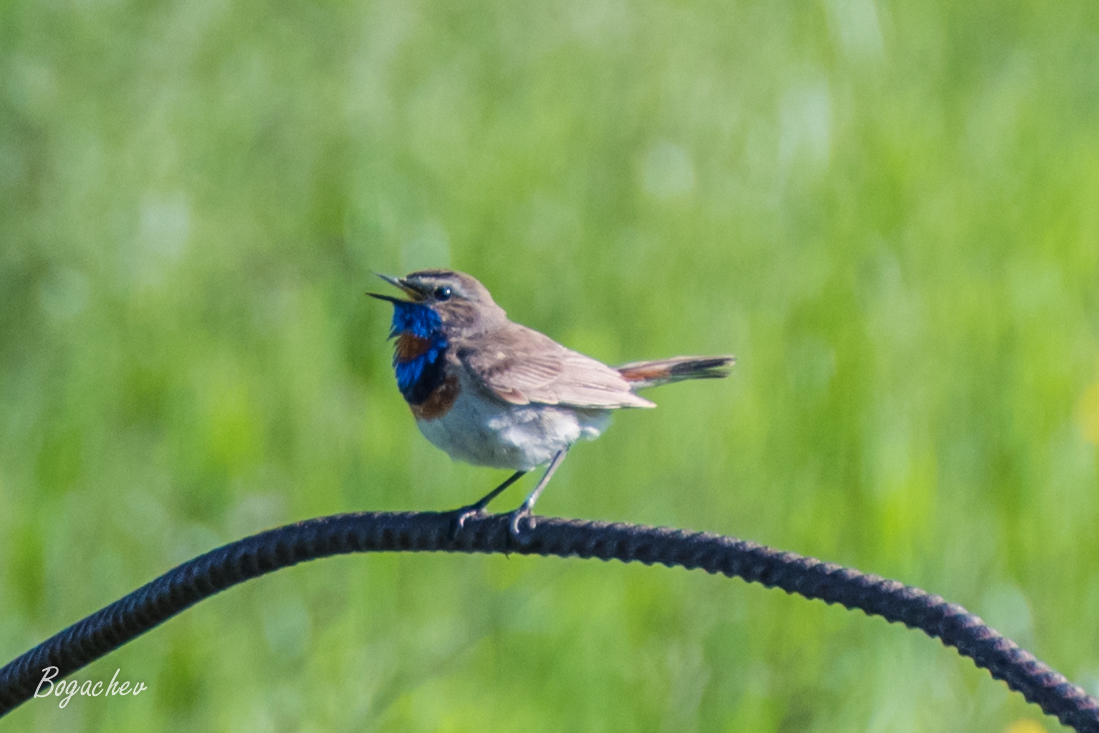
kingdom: Animalia
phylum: Chordata
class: Aves
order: Passeriformes
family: Muscicapidae
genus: Luscinia
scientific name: Luscinia svecica
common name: Bluethroat
